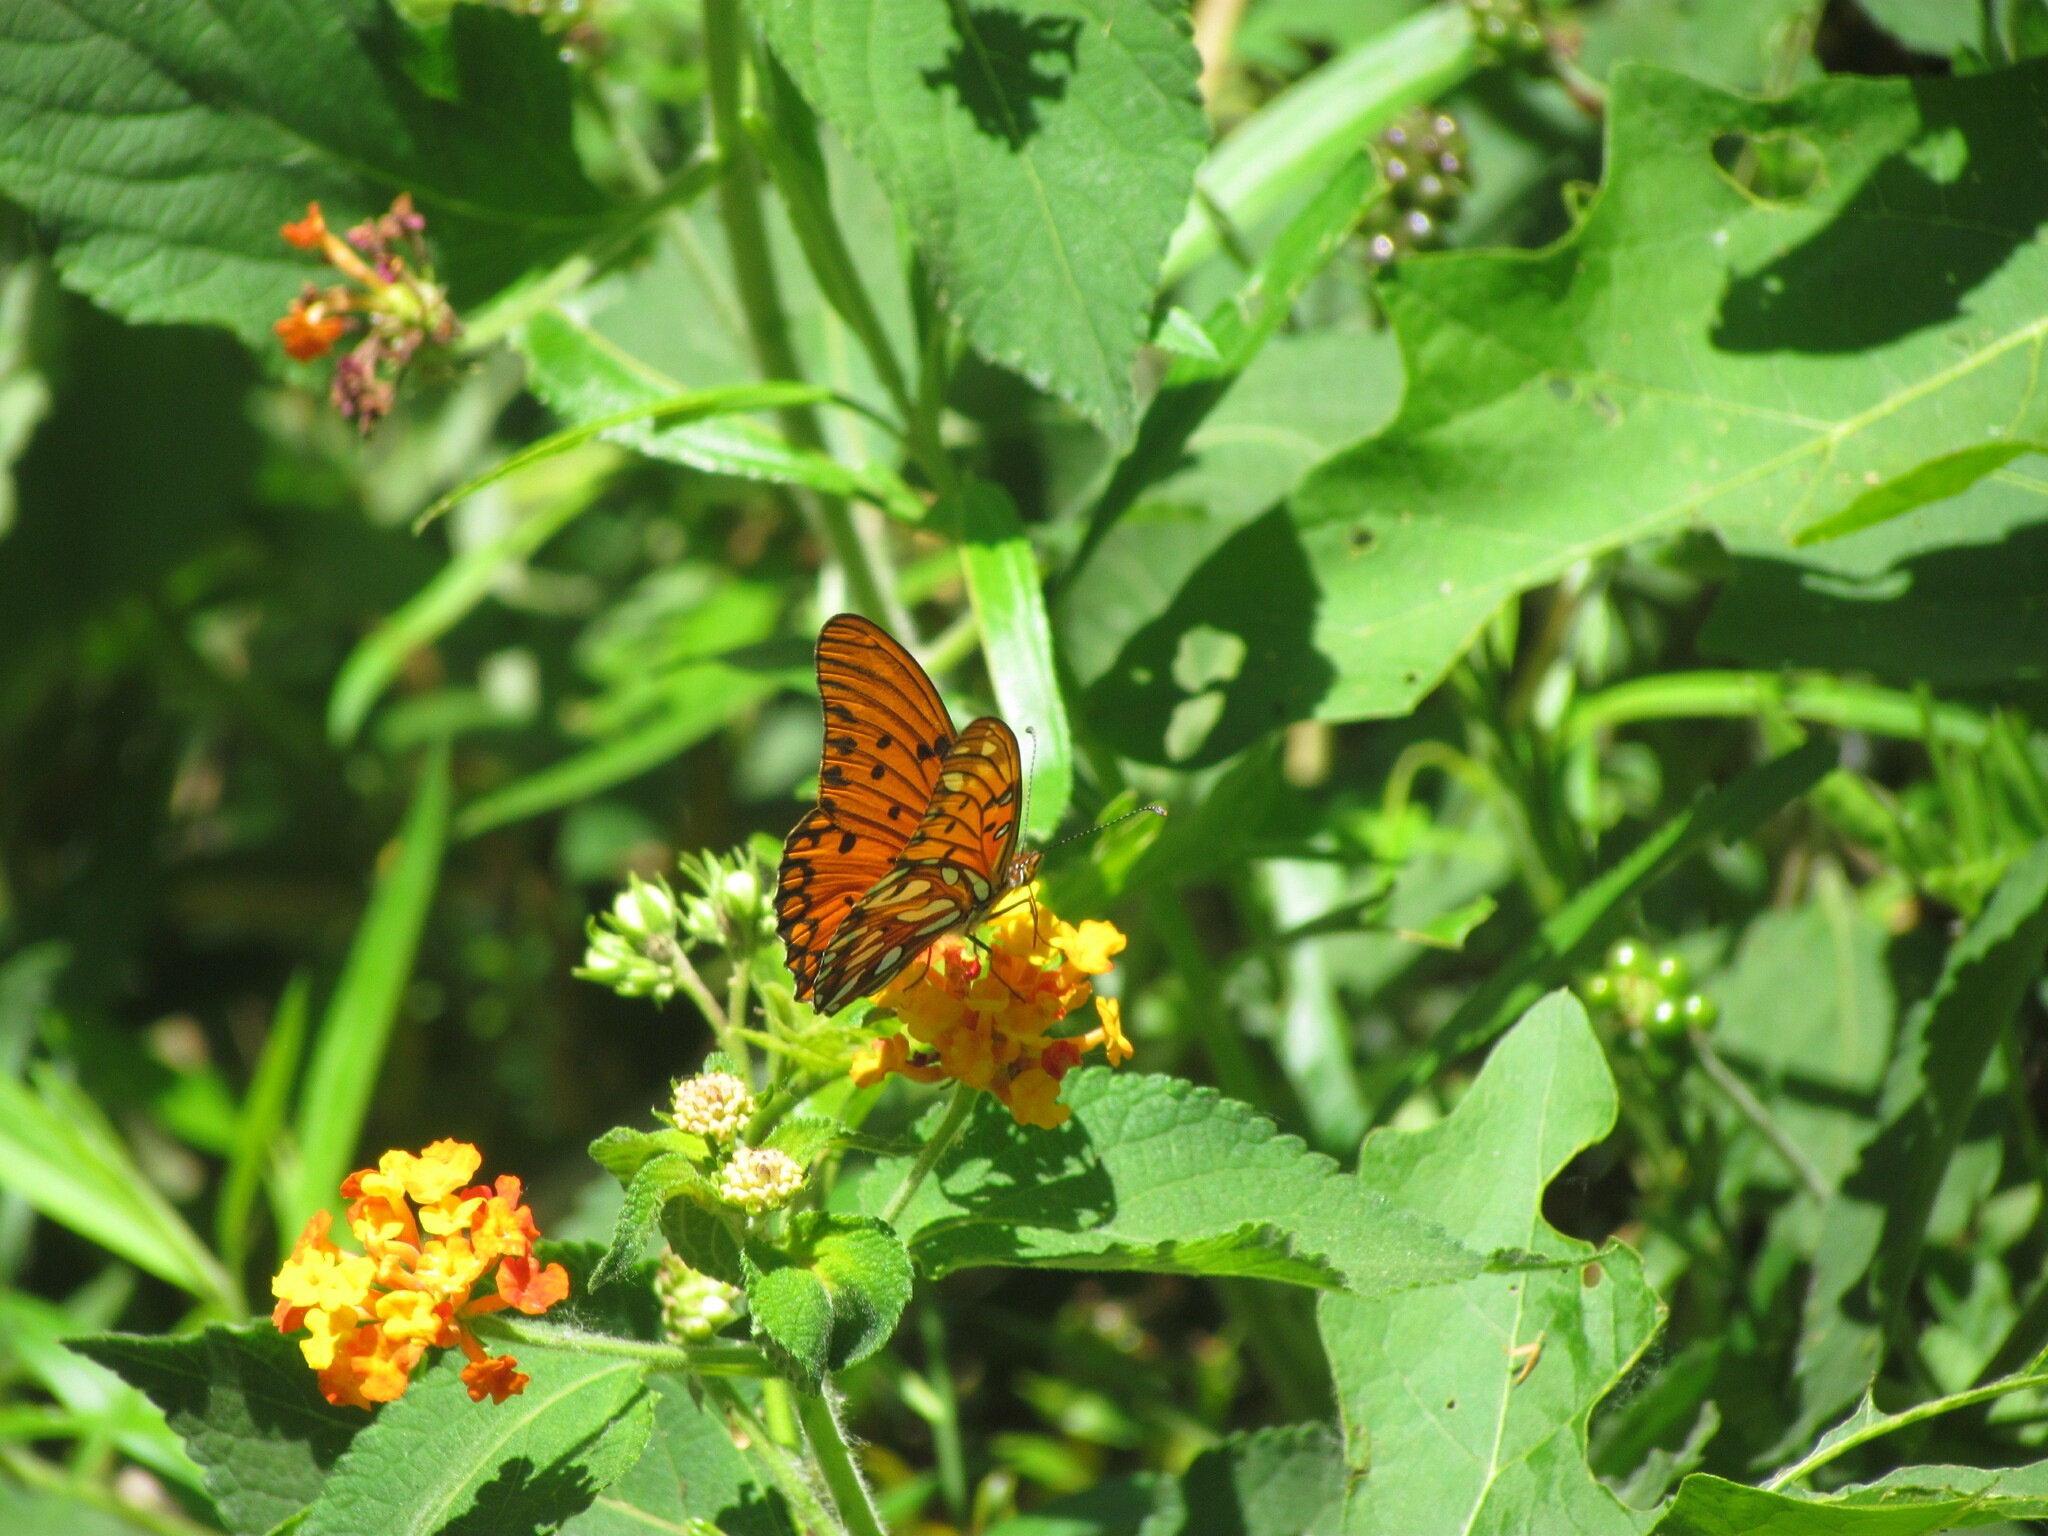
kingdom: Animalia
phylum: Arthropoda
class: Insecta
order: Lepidoptera
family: Nymphalidae
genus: Dione
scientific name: Dione vanillae
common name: Gulf fritillary
